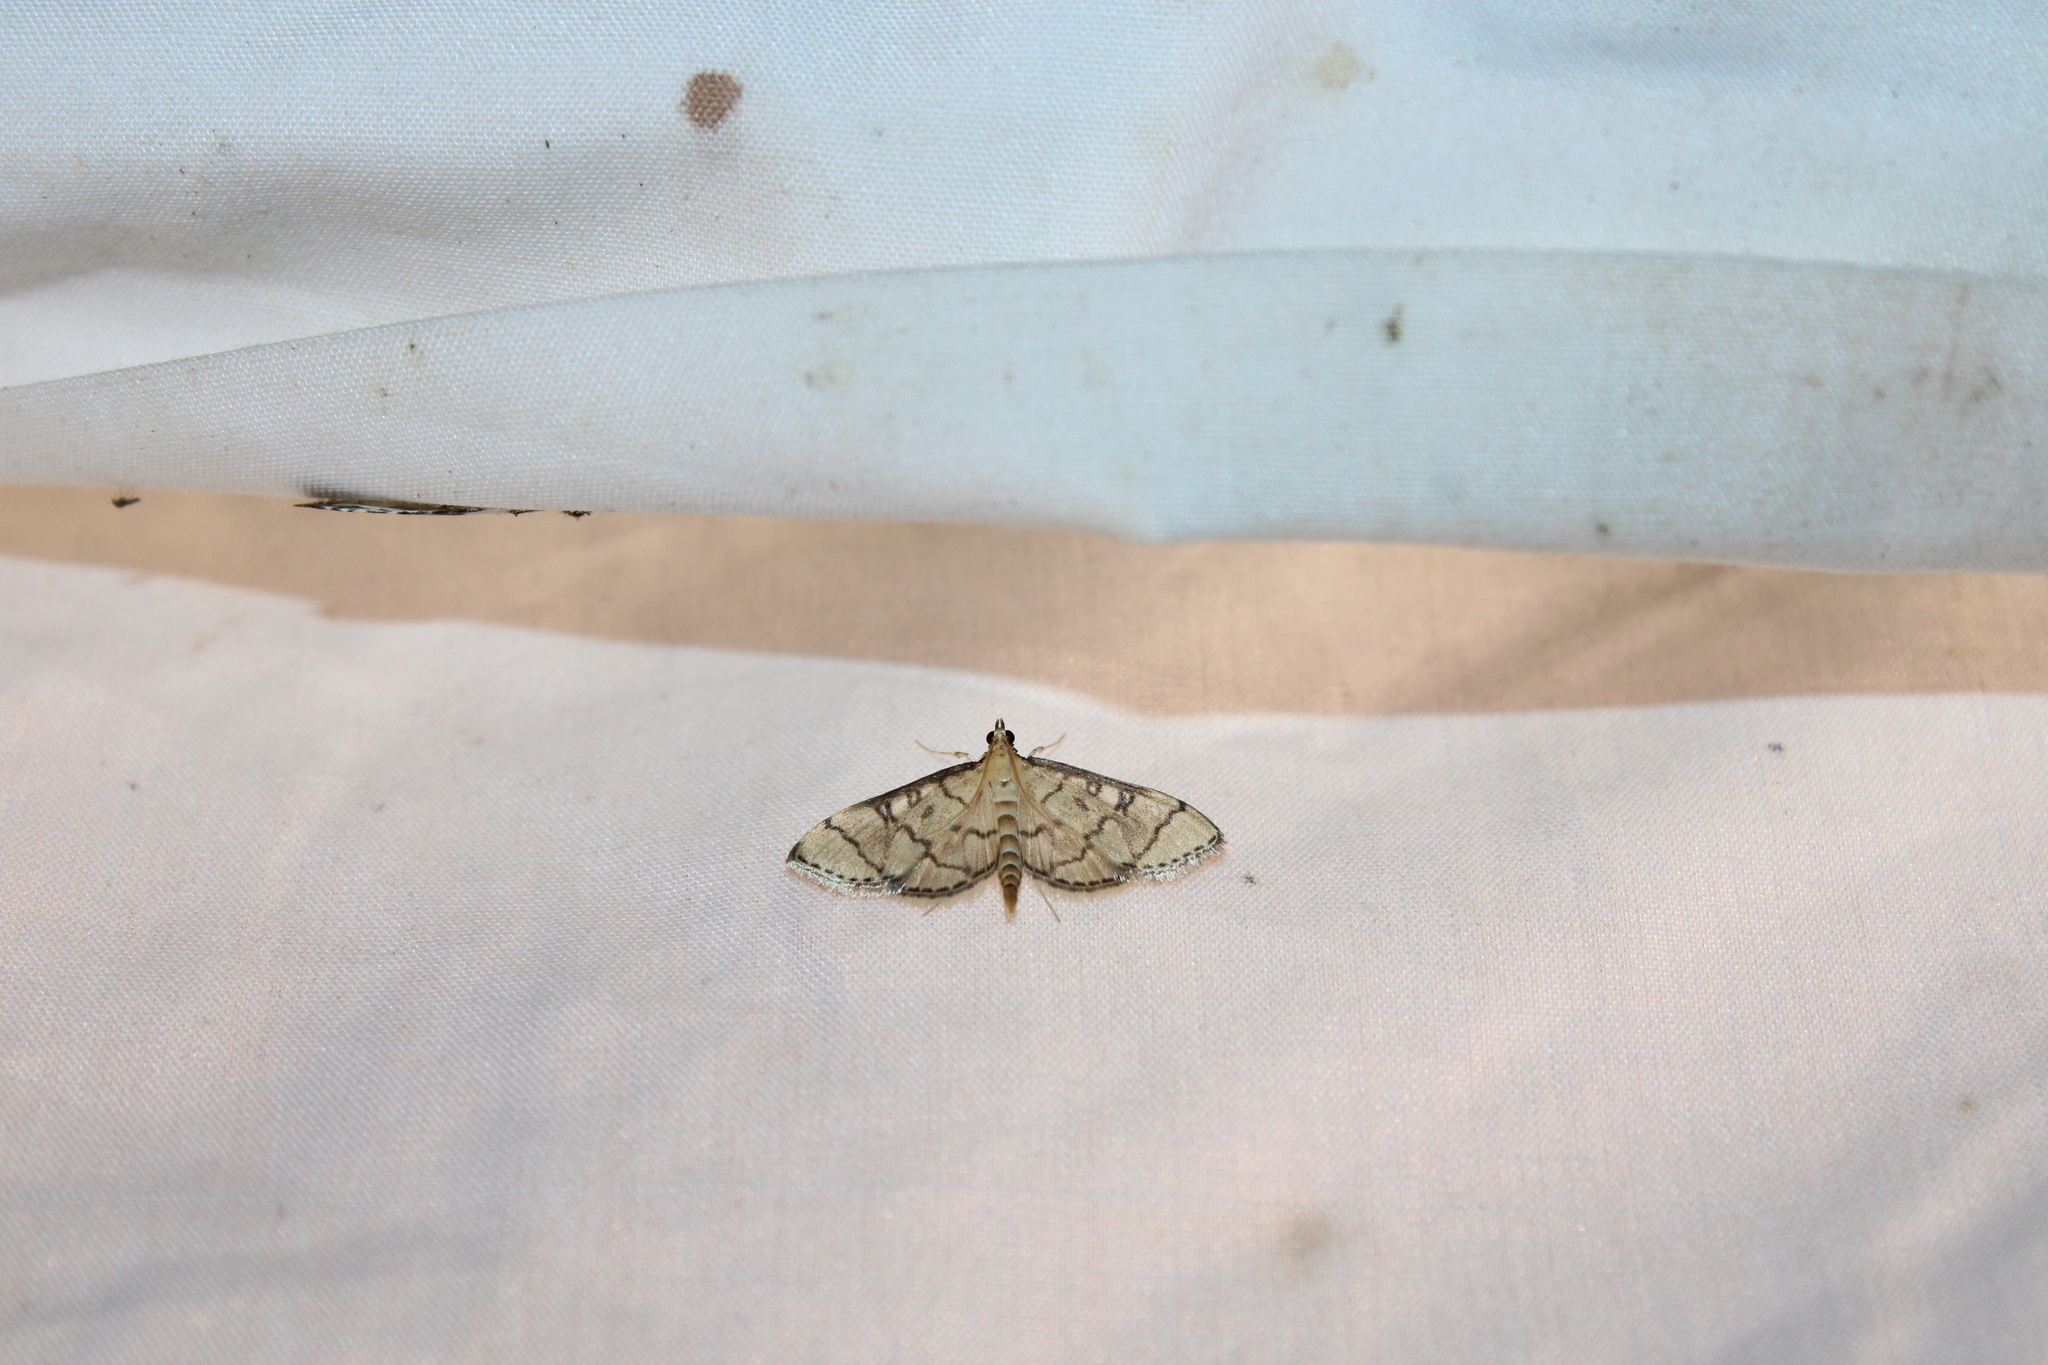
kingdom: Animalia
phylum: Arthropoda
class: Insecta
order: Lepidoptera
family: Crambidae
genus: Lamprosema
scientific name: Lamprosema Blepharomastix ranalis
